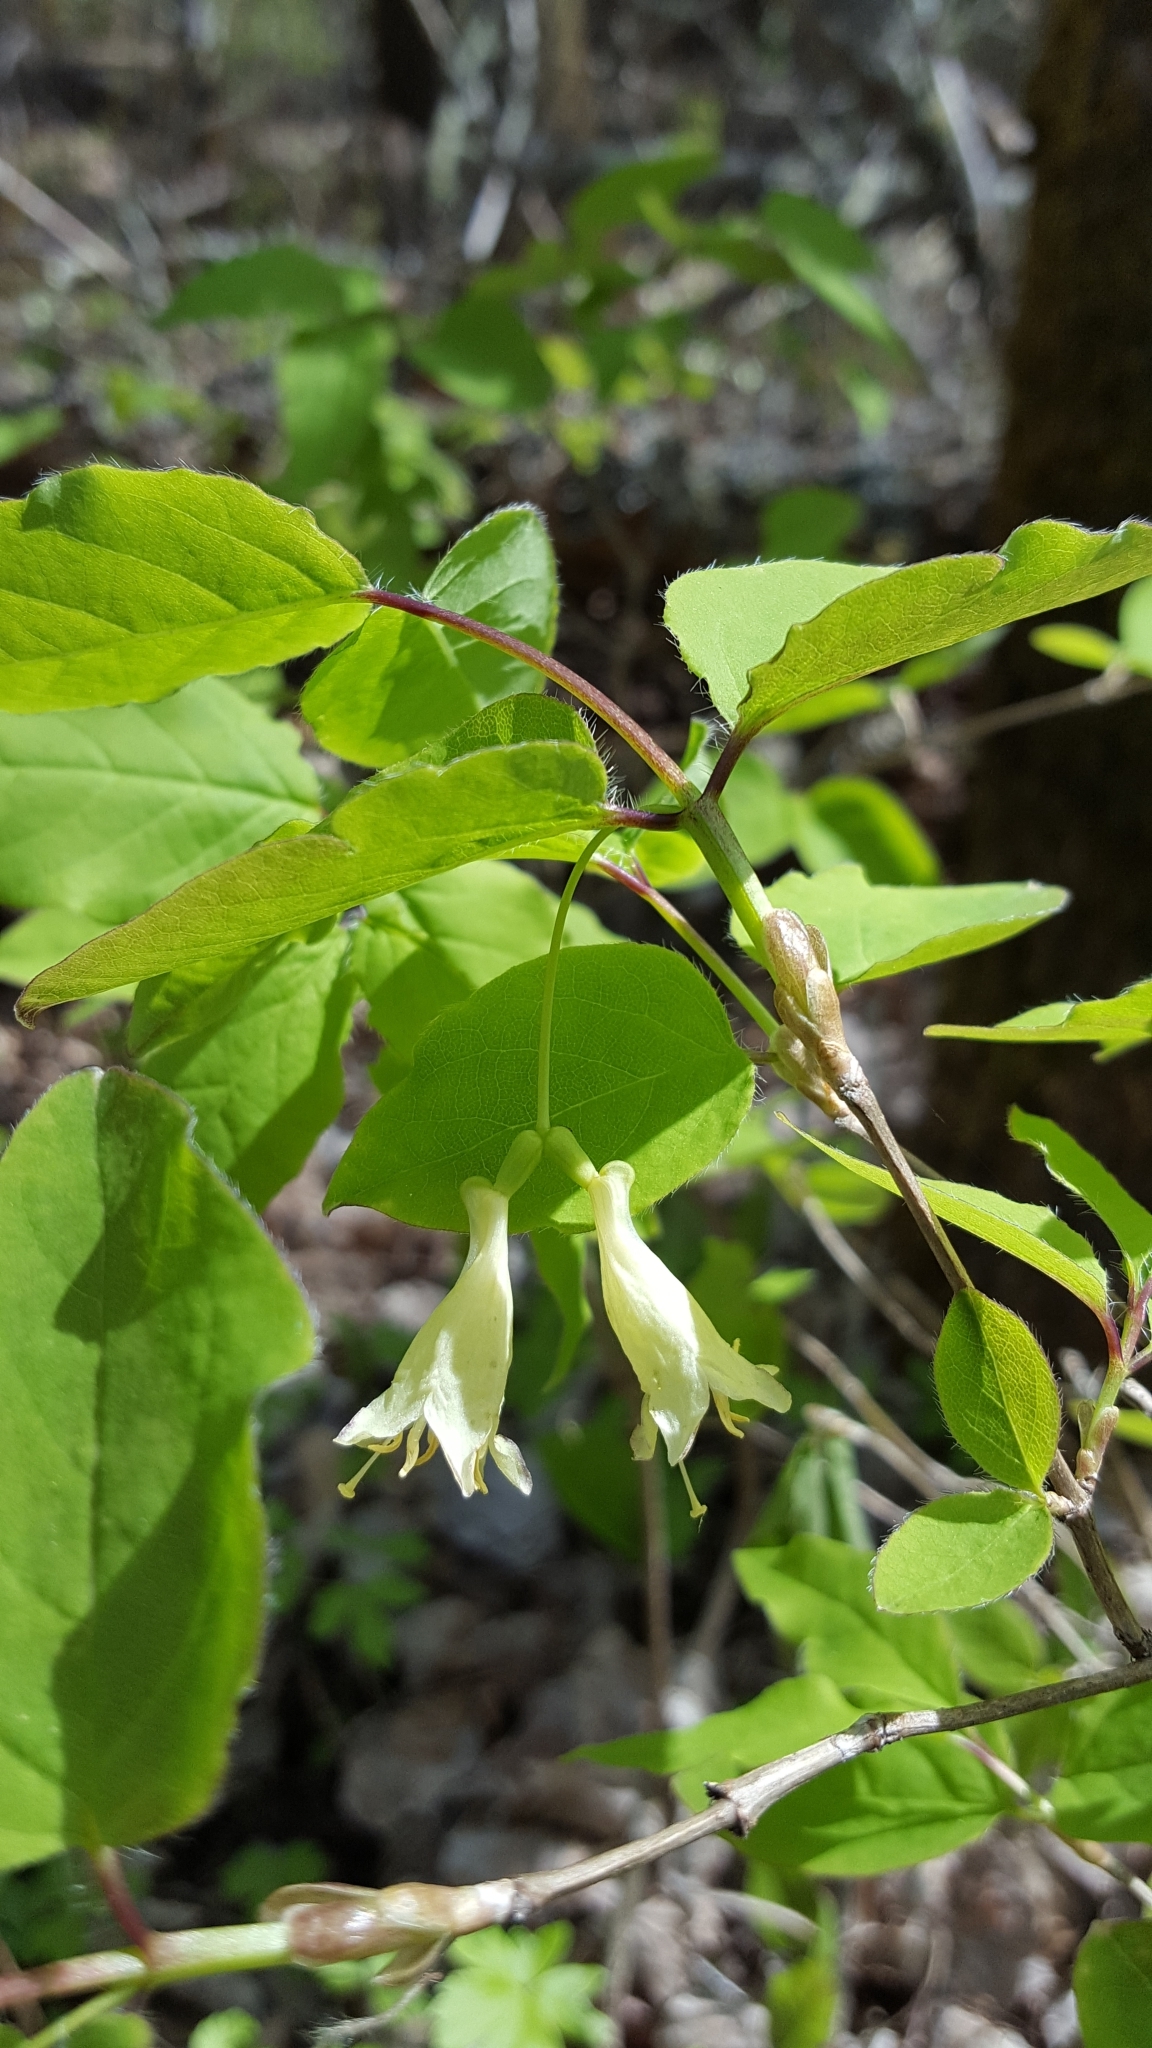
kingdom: Plantae
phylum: Tracheophyta
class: Magnoliopsida
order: Dipsacales
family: Caprifoliaceae
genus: Lonicera
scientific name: Lonicera canadensis
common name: American fly-honeysuckle
